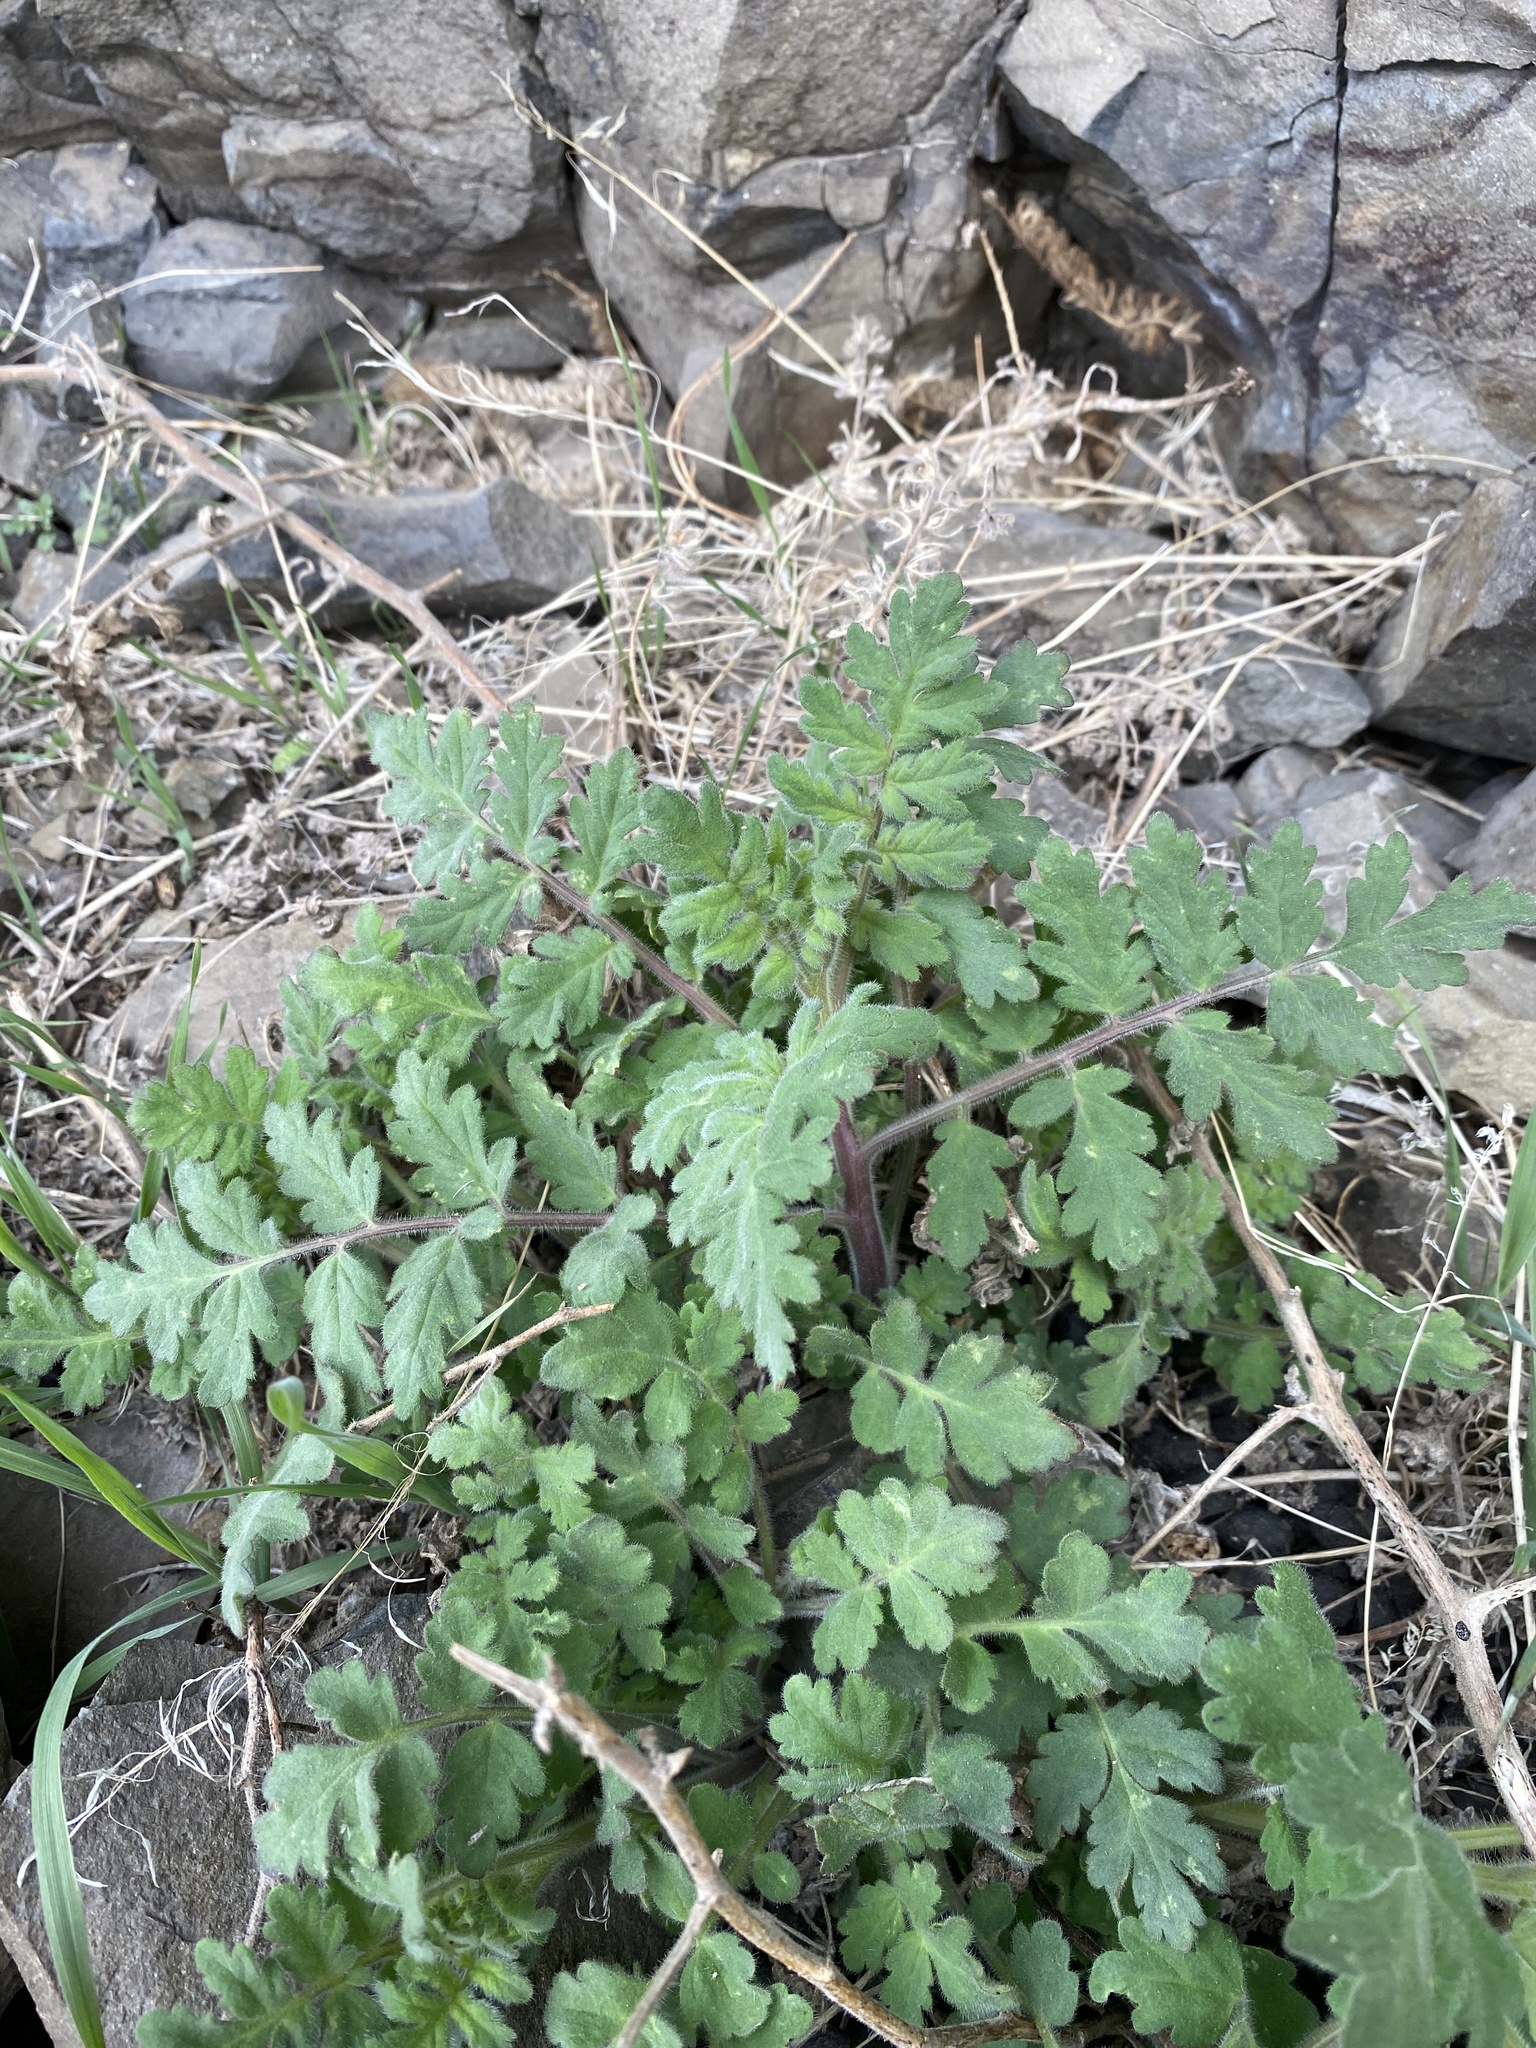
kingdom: Plantae
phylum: Tracheophyta
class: Magnoliopsida
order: Boraginales
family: Hydrophyllaceae
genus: Phacelia
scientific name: Phacelia ramosissima
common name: Branching phacelia
